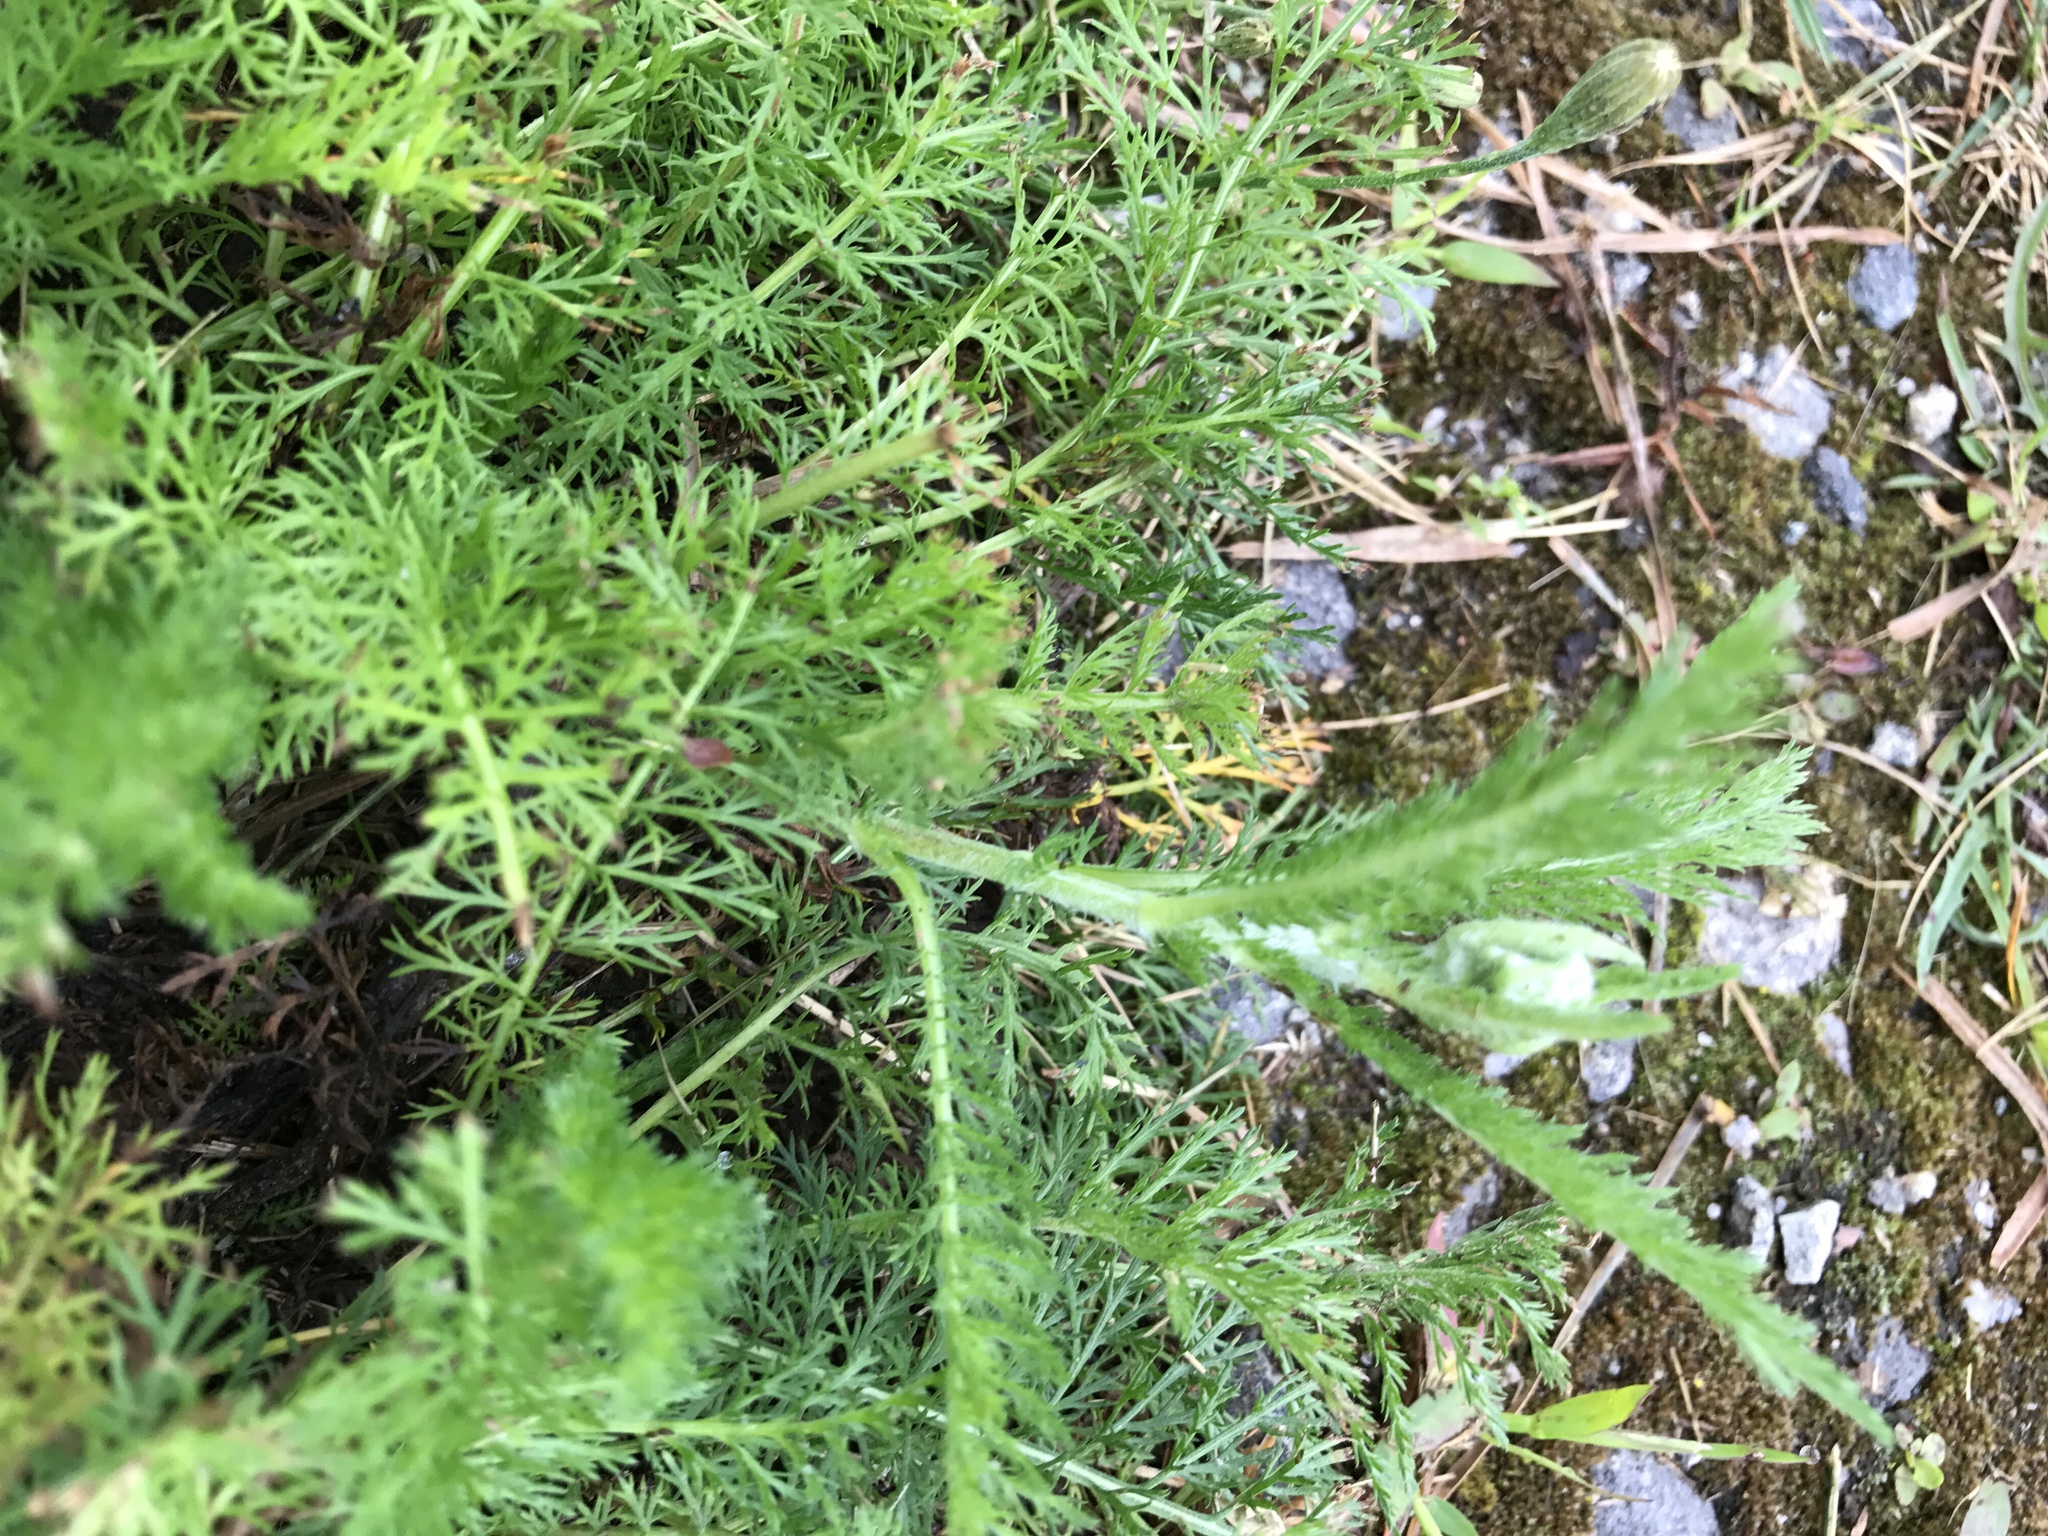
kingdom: Plantae
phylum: Tracheophyta
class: Magnoliopsida
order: Asterales
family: Asteraceae
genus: Achillea
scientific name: Achillea millefolium
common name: Yarrow
